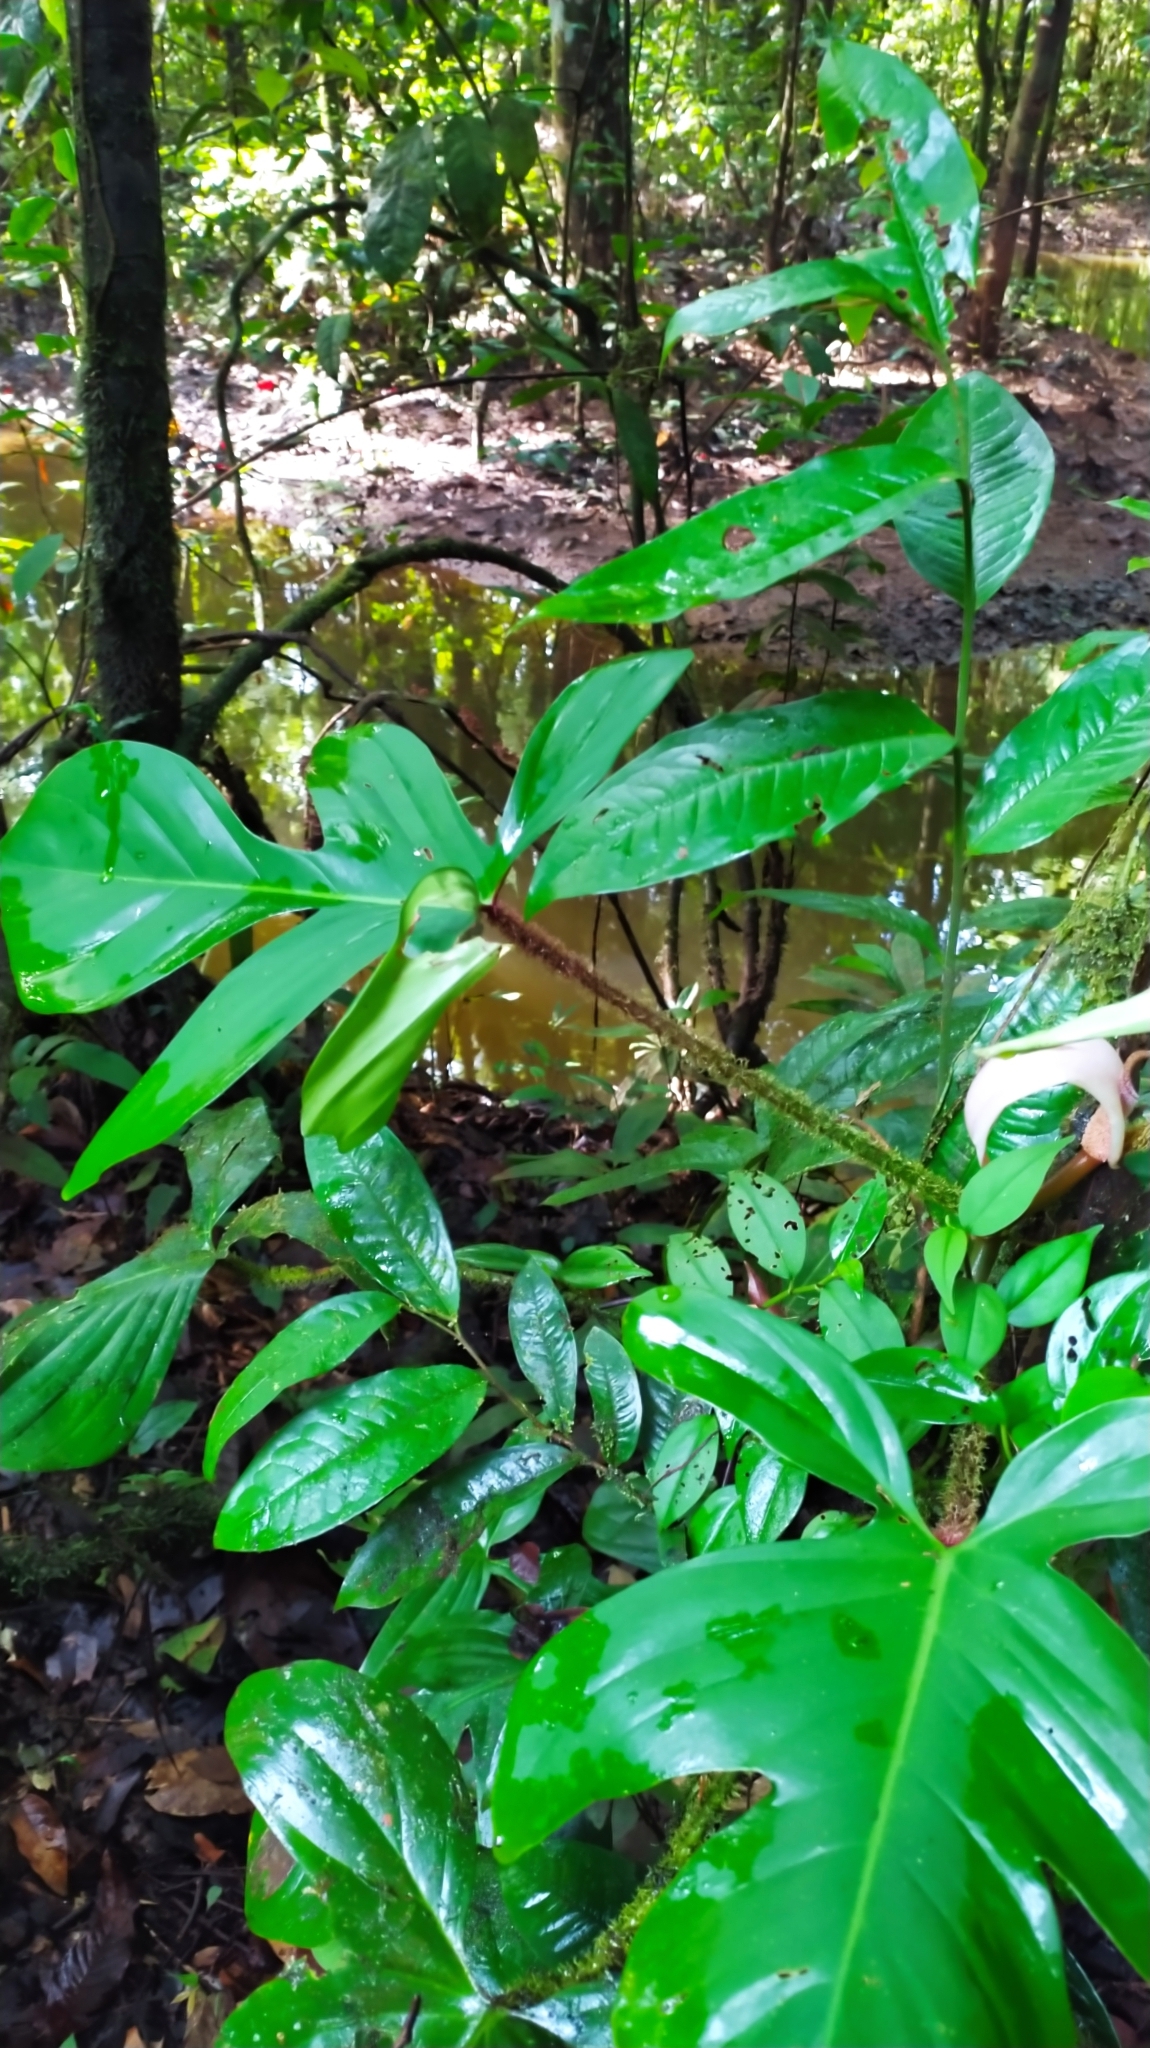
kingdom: Plantae
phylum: Tracheophyta
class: Liliopsida
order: Alismatales
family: Araceae
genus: Philodendron
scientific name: Philodendron squamiferum
